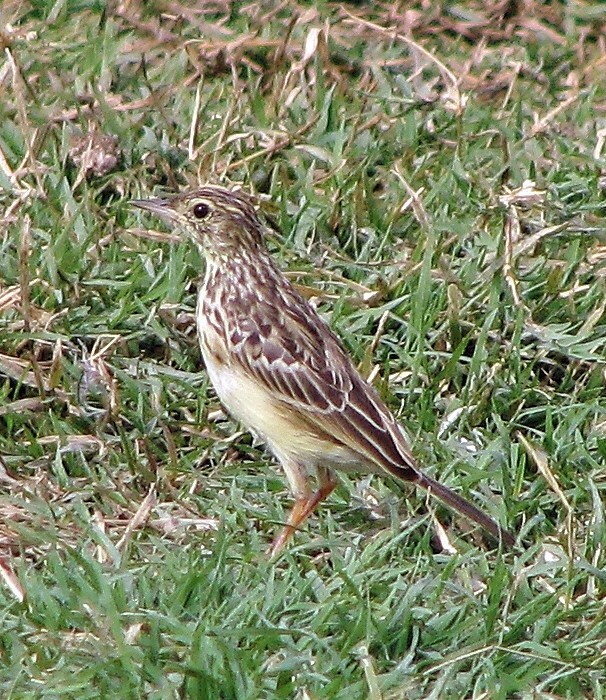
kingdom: Animalia
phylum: Chordata
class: Aves
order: Passeriformes
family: Motacillidae
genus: Anthus
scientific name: Anthus chii
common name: Yellowish pipit
